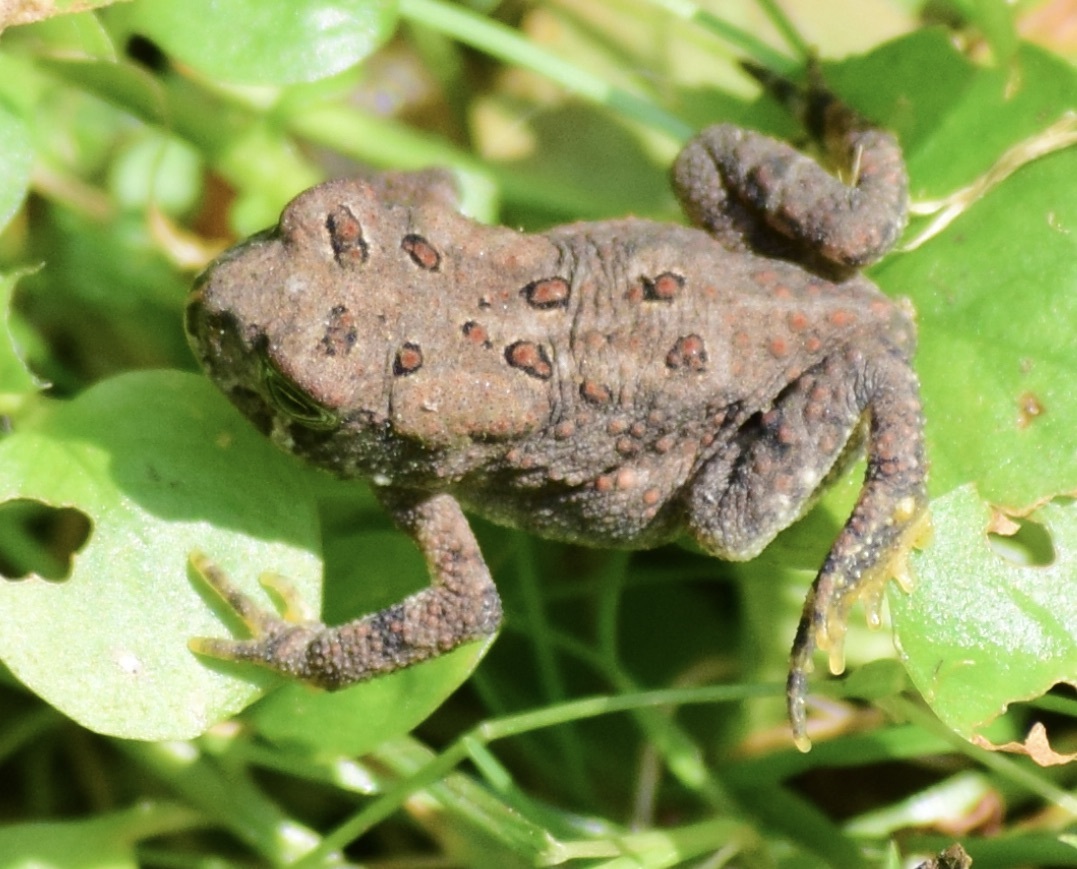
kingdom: Animalia
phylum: Chordata
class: Amphibia
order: Anura
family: Bufonidae
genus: Anaxyrus
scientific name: Anaxyrus americanus
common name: American toad
